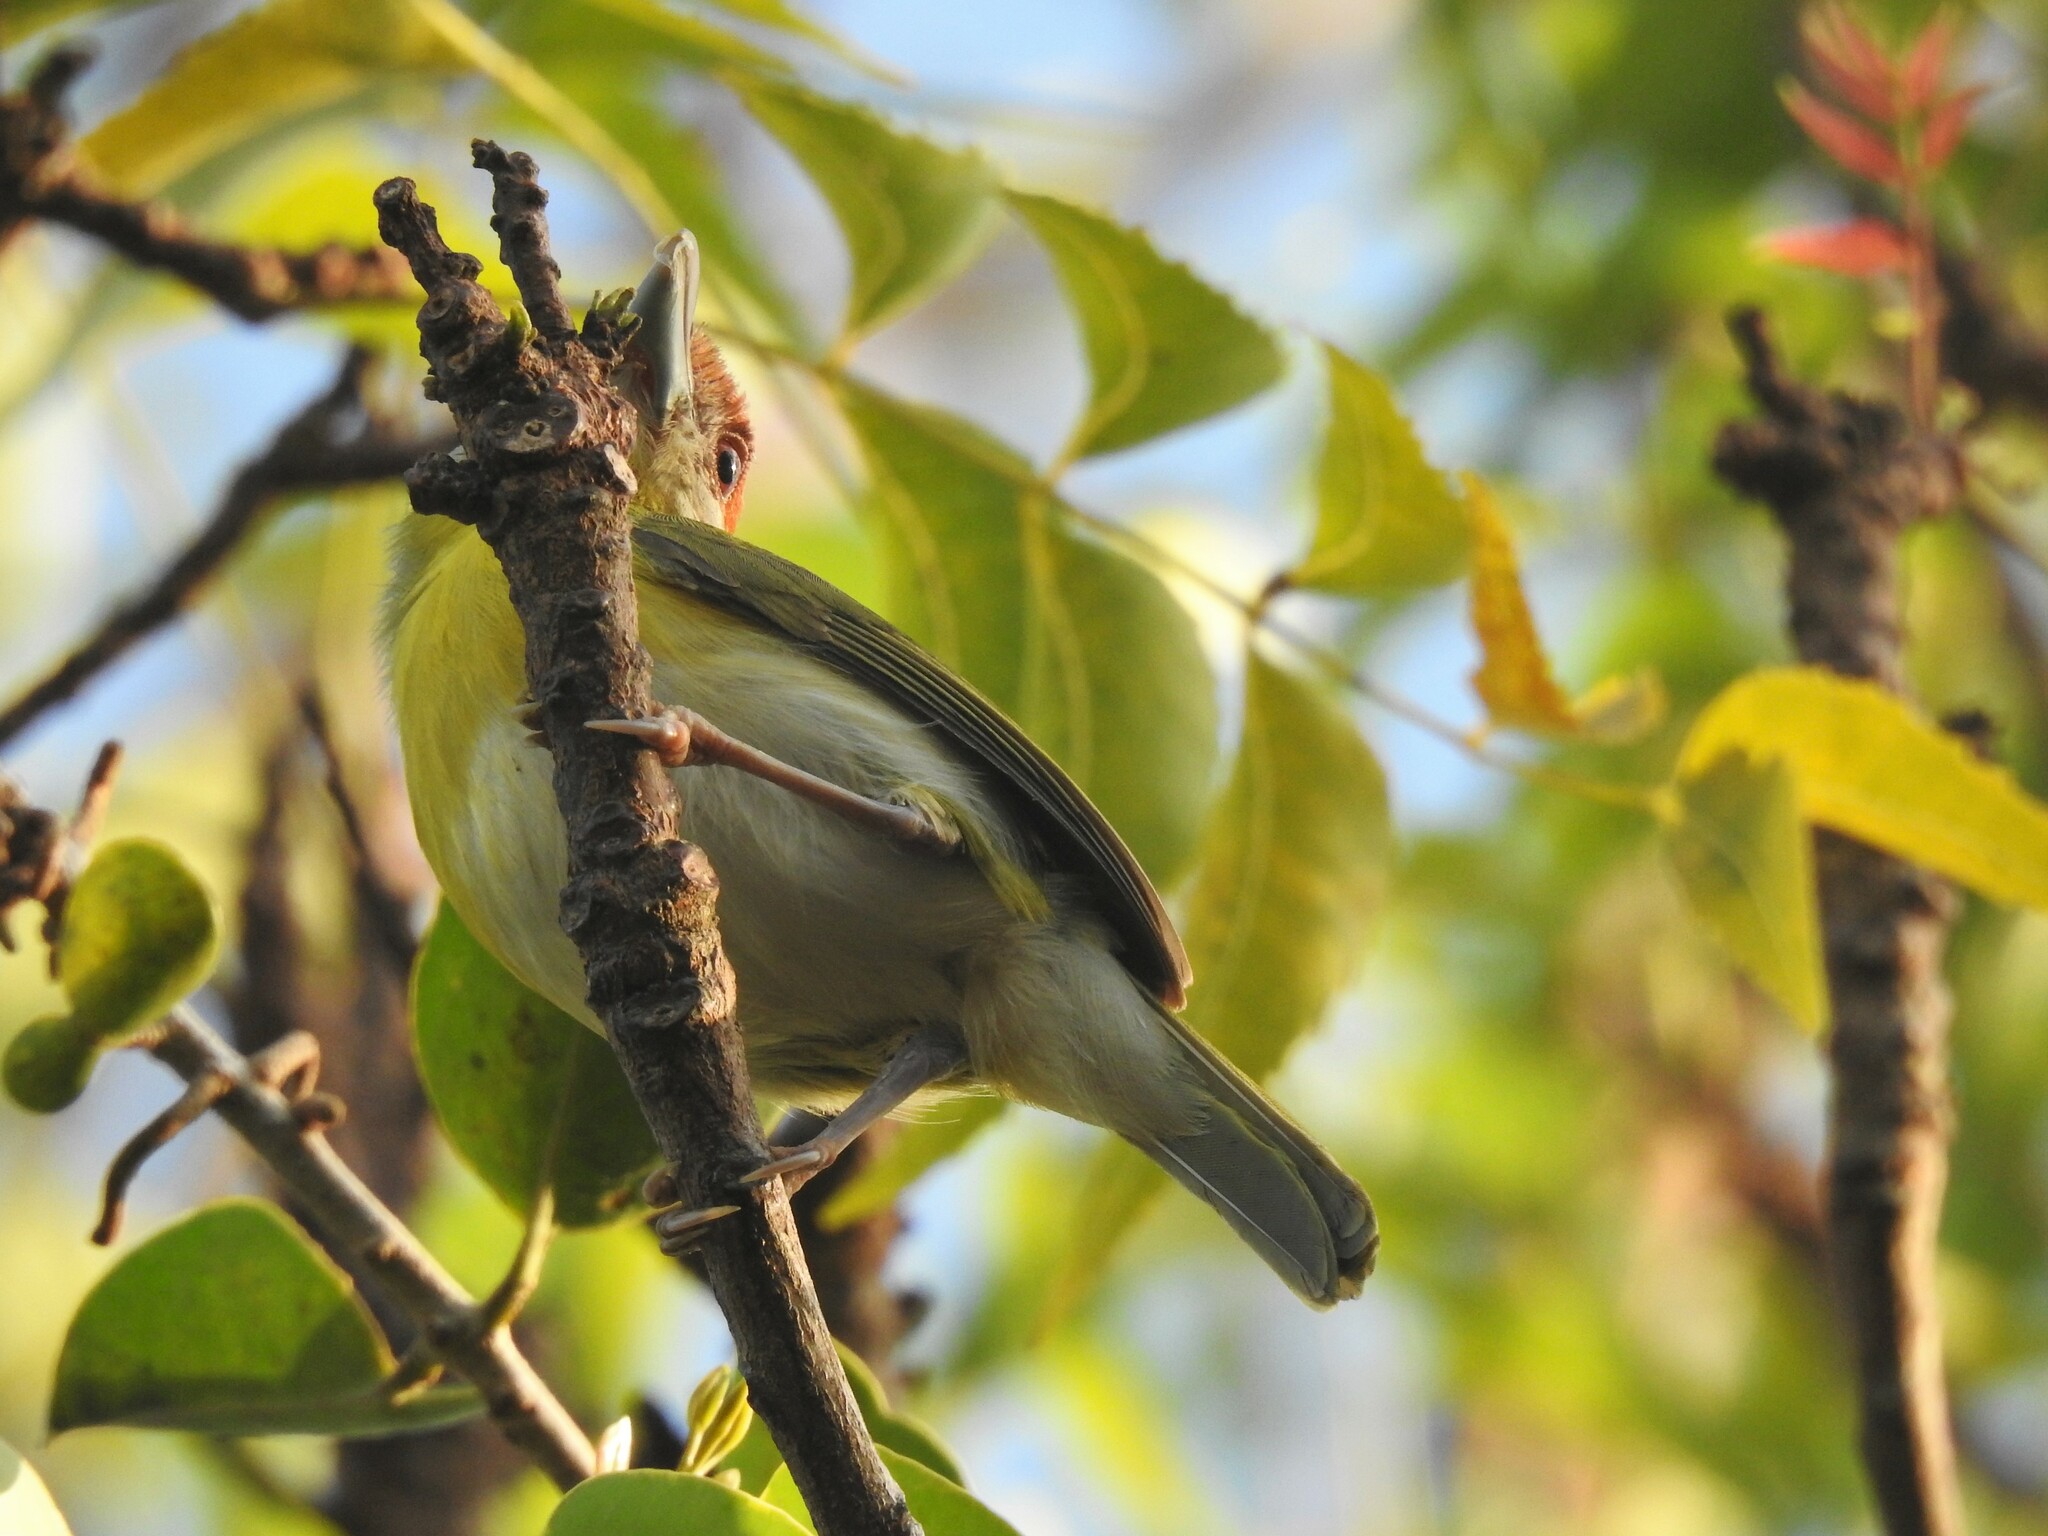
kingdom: Animalia
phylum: Chordata
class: Aves
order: Passeriformes
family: Vireonidae
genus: Cyclarhis
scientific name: Cyclarhis gujanensis
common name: Rufous-browed peppershrike
